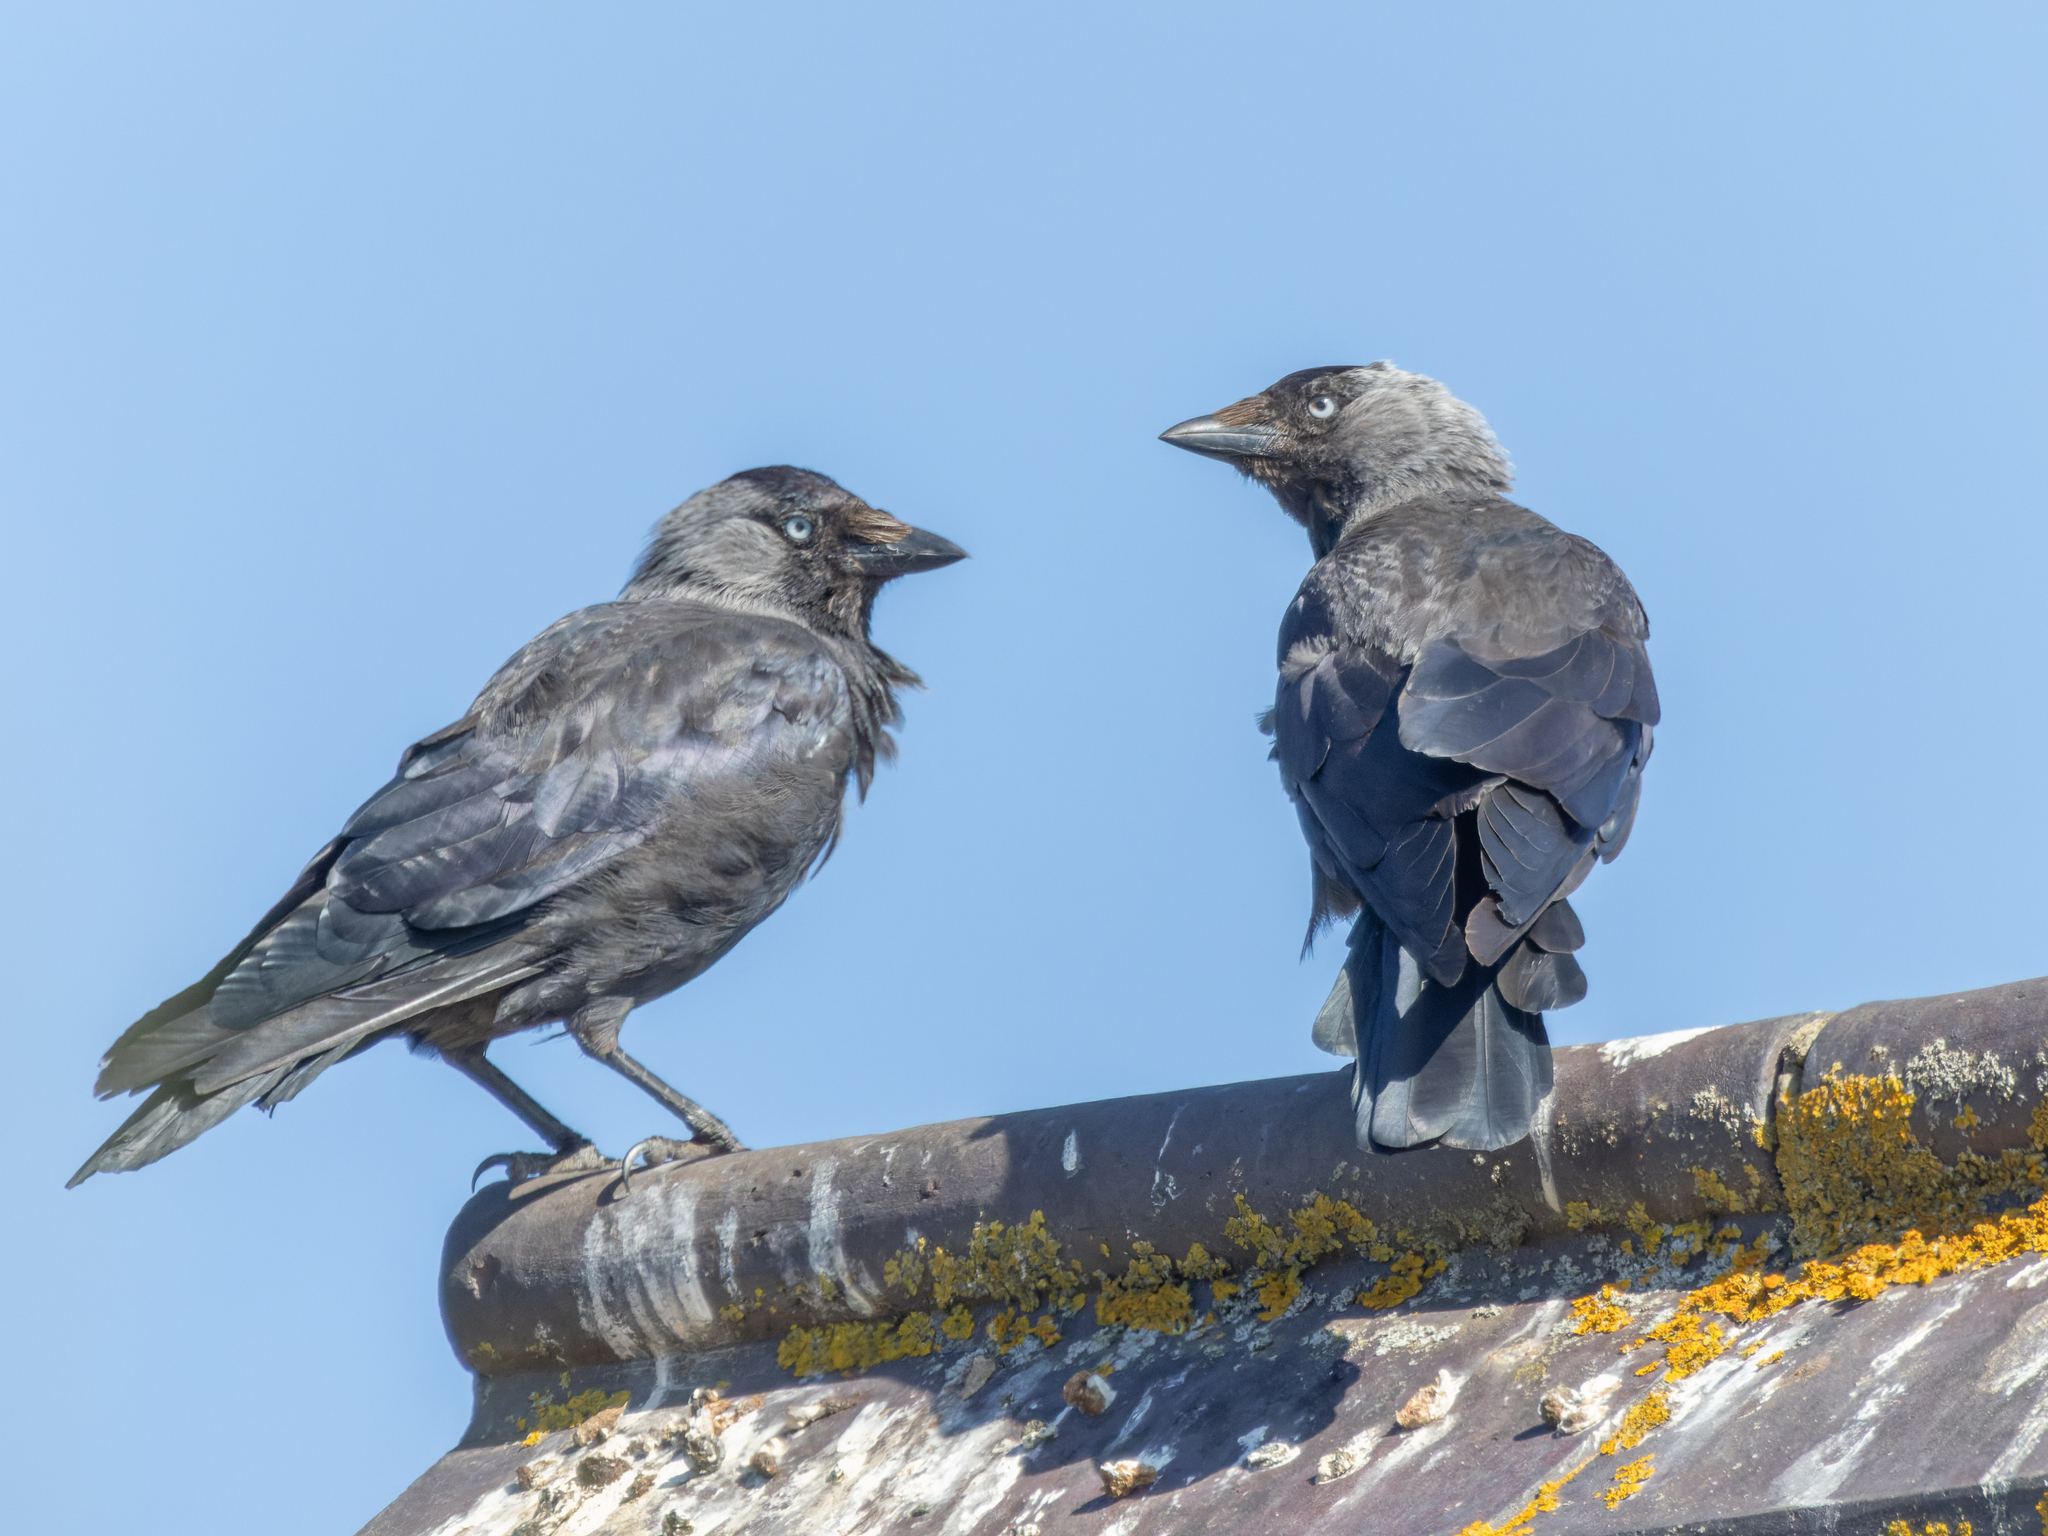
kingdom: Animalia
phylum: Chordata
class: Aves
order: Passeriformes
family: Corvidae
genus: Coloeus
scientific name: Coloeus monedula
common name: Western jackdaw
